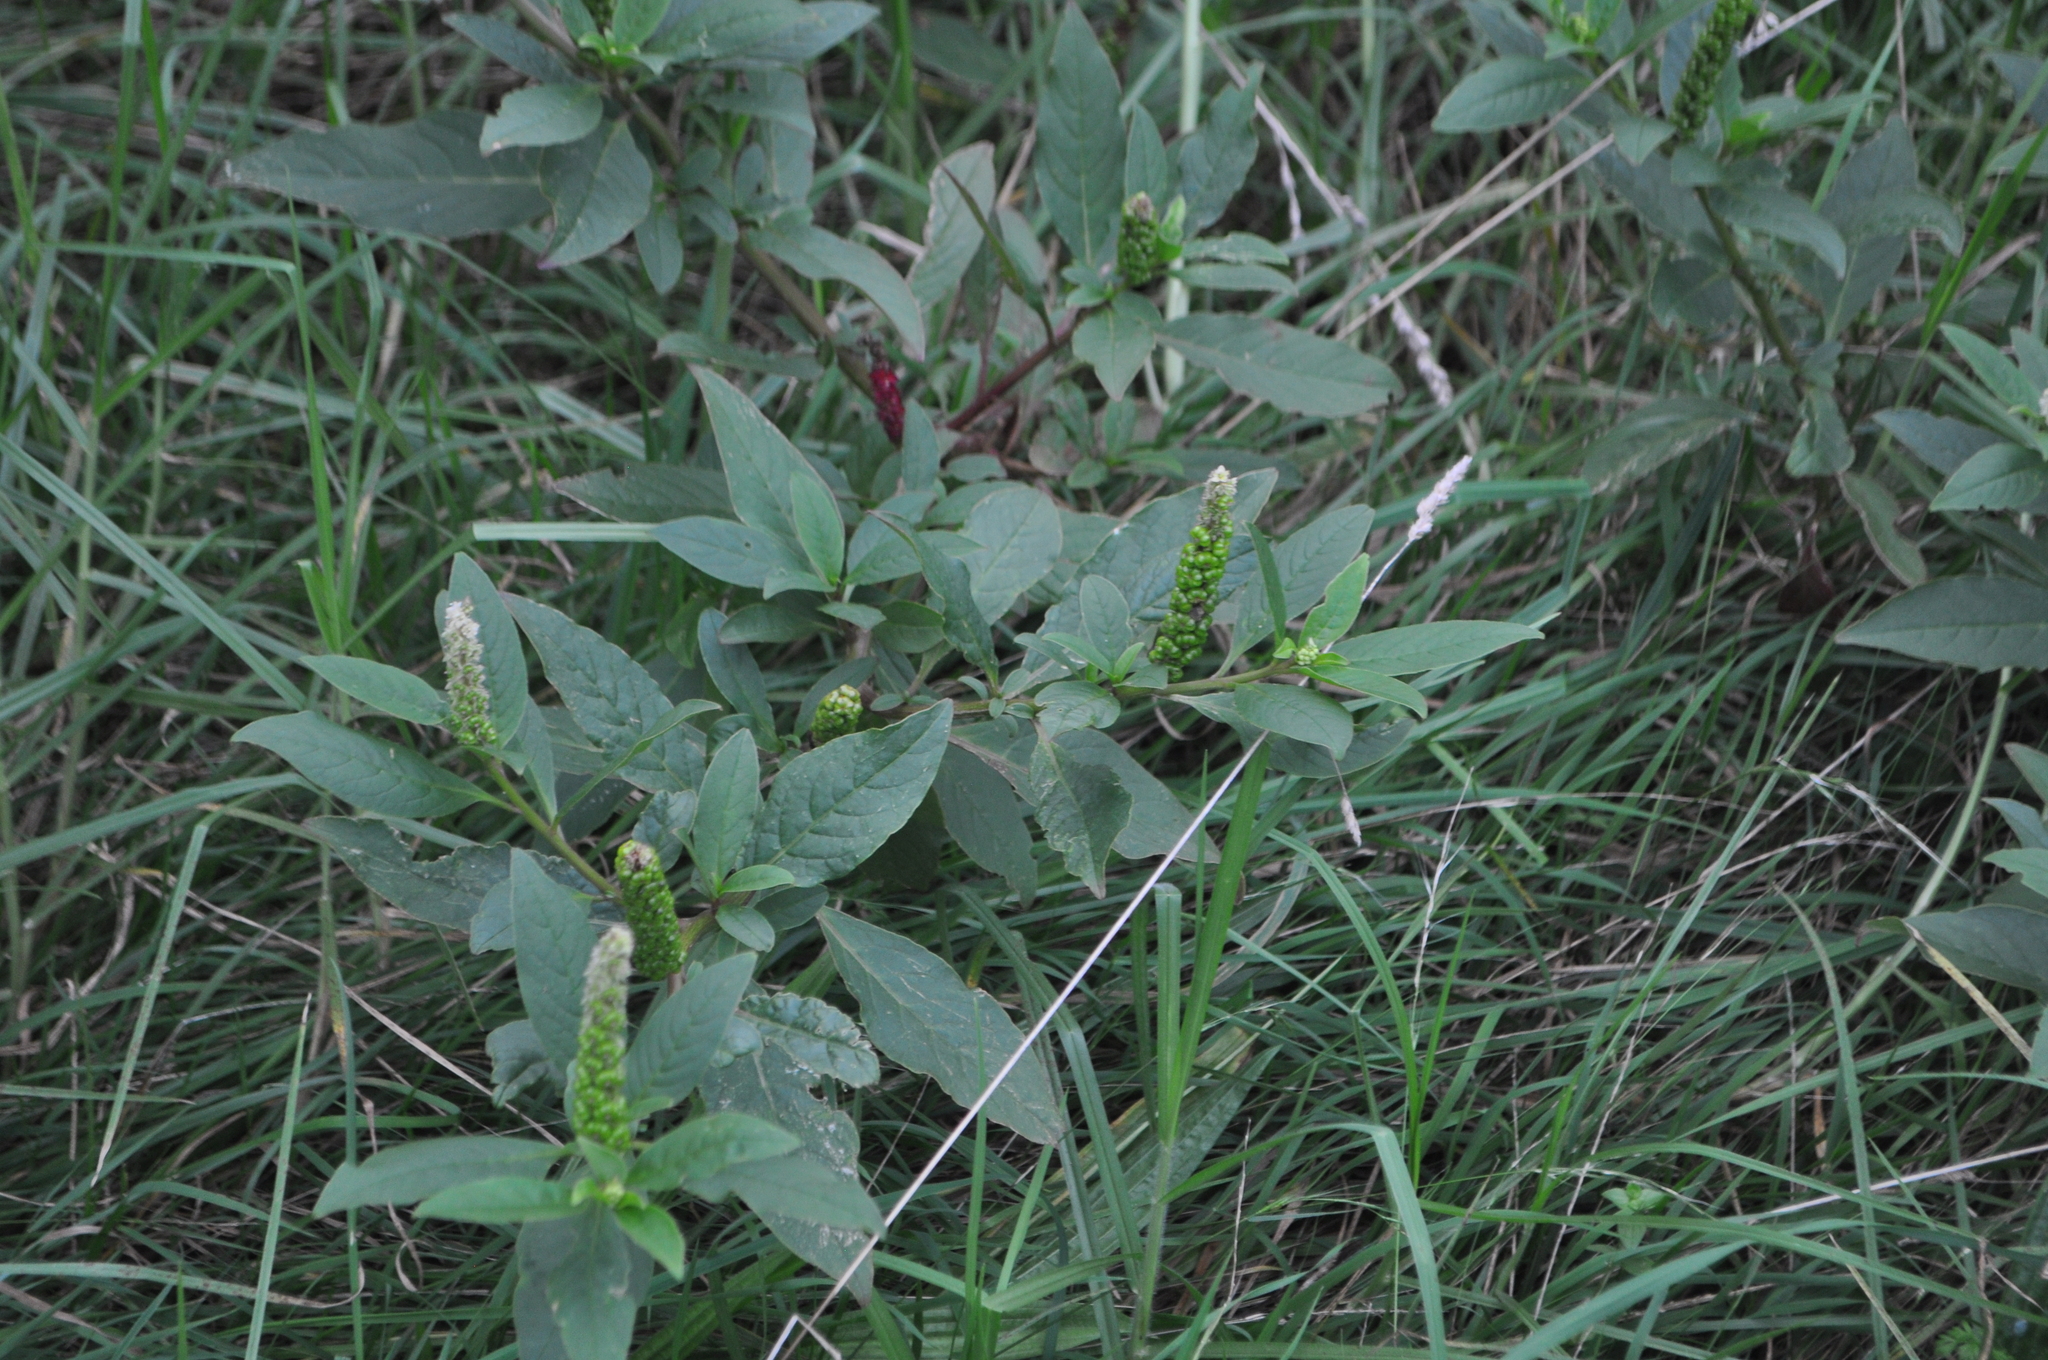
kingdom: Plantae
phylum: Tracheophyta
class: Magnoliopsida
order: Caryophyllales
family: Phytolaccaceae
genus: Phytolacca
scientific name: Phytolacca icosandra
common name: Button pokeweed
